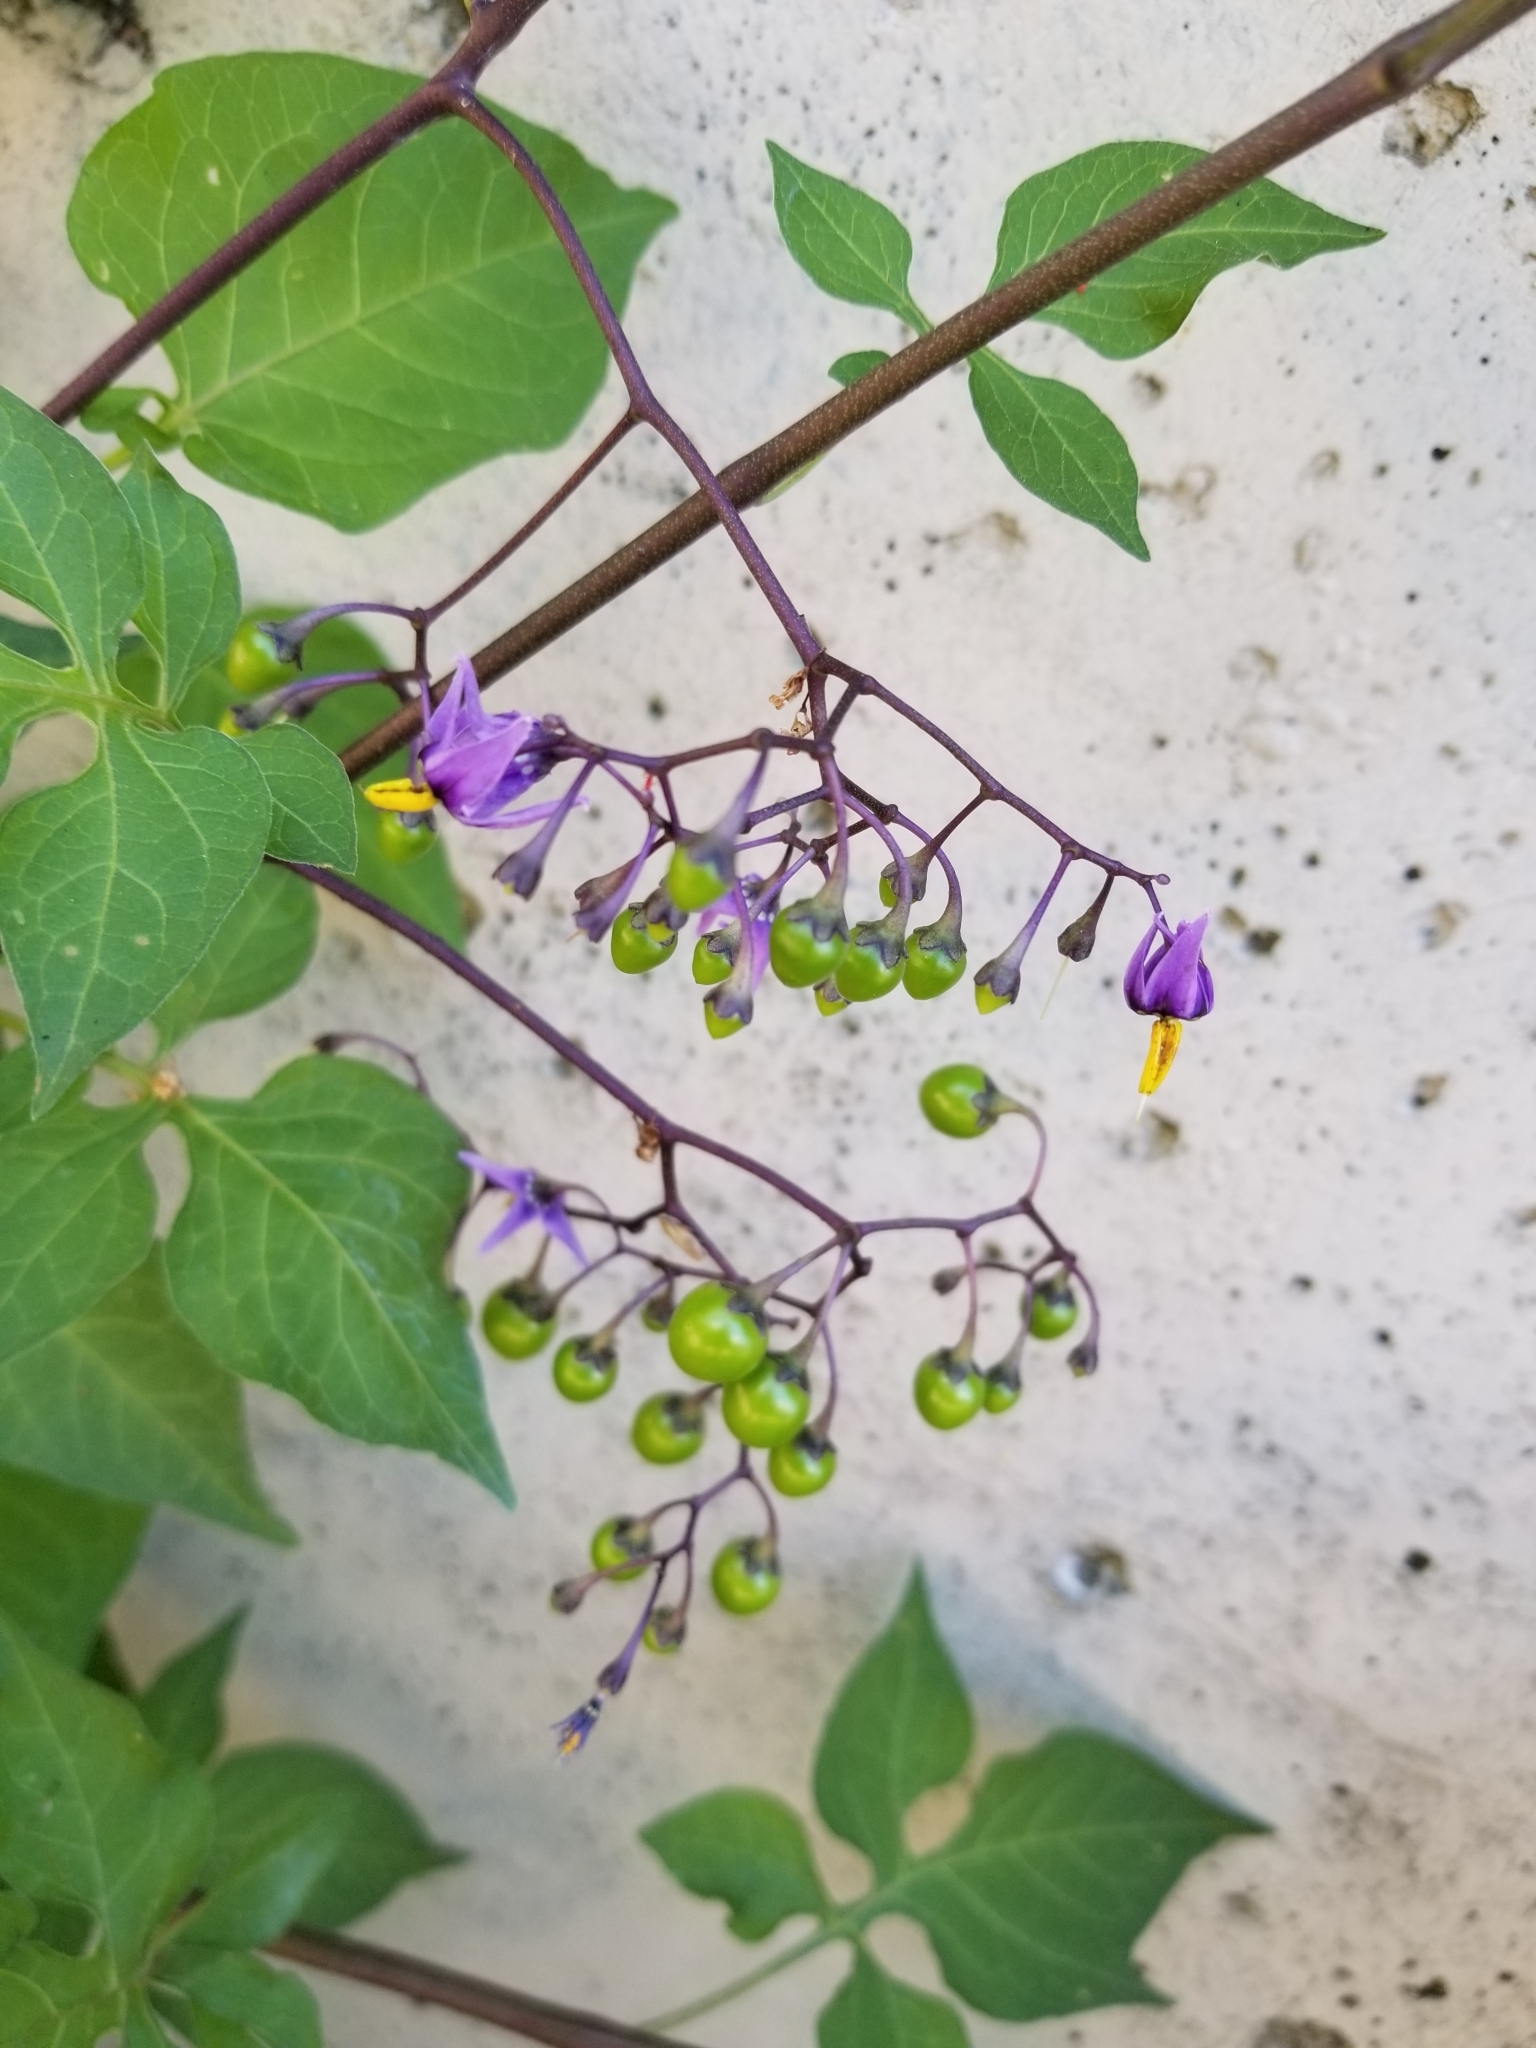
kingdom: Plantae
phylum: Tracheophyta
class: Magnoliopsida
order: Solanales
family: Solanaceae
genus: Solanum
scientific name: Solanum dulcamara
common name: Climbing nightshade
